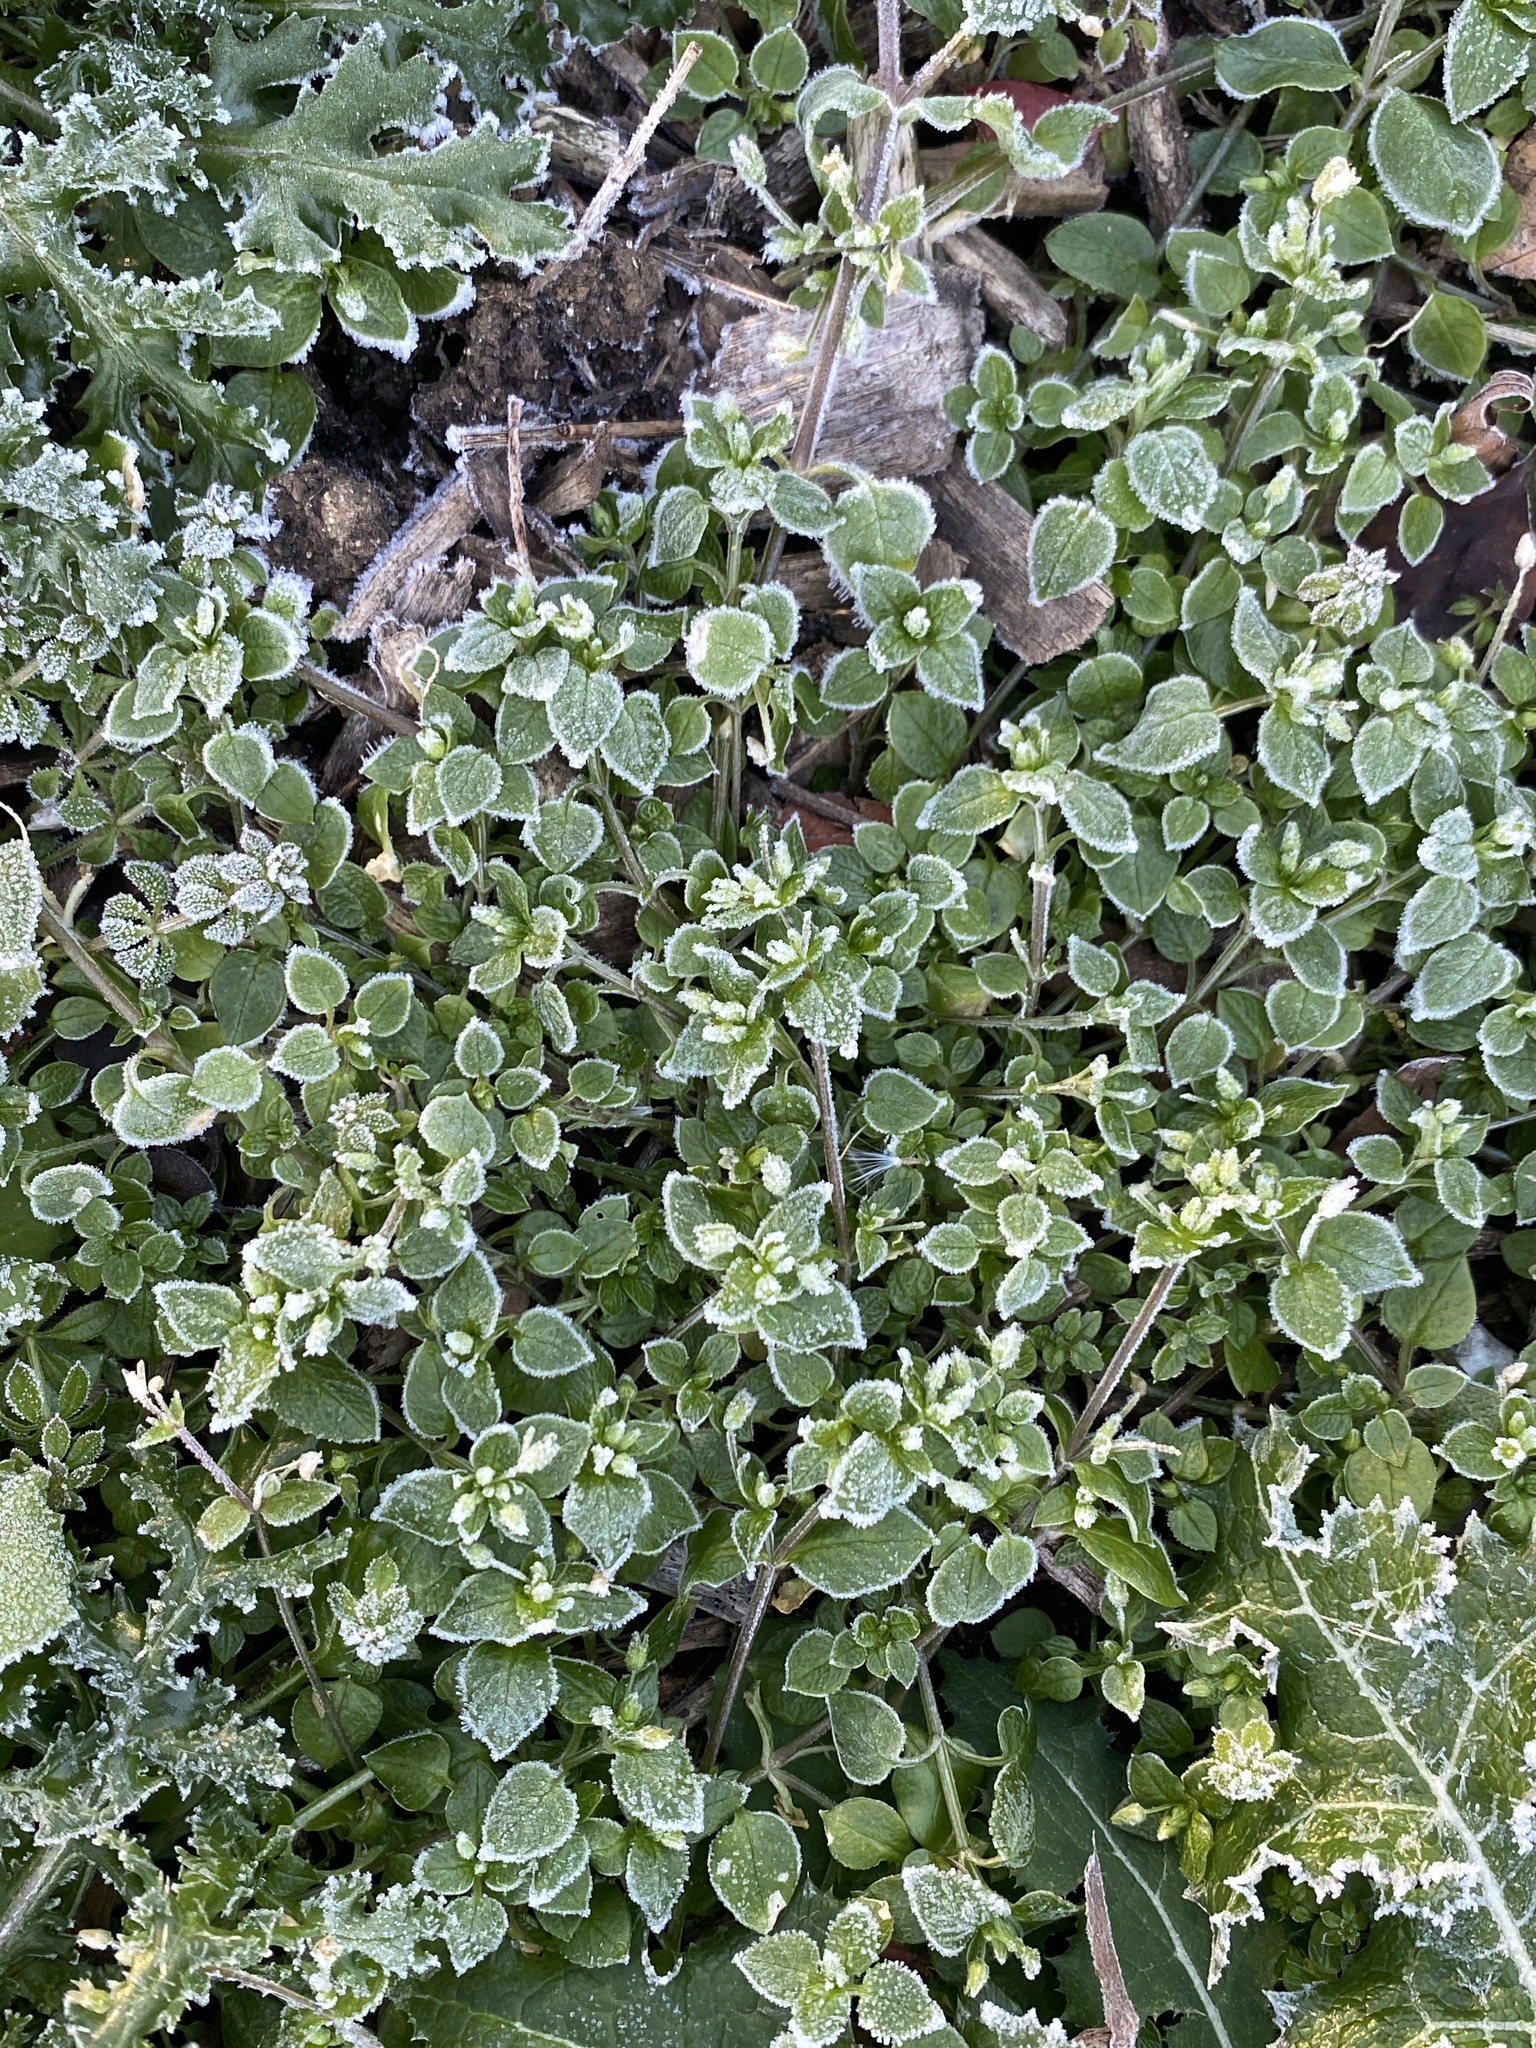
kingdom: Plantae
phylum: Tracheophyta
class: Magnoliopsida
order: Caryophyllales
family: Caryophyllaceae
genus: Stellaria
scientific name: Stellaria media
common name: Common chickweed
